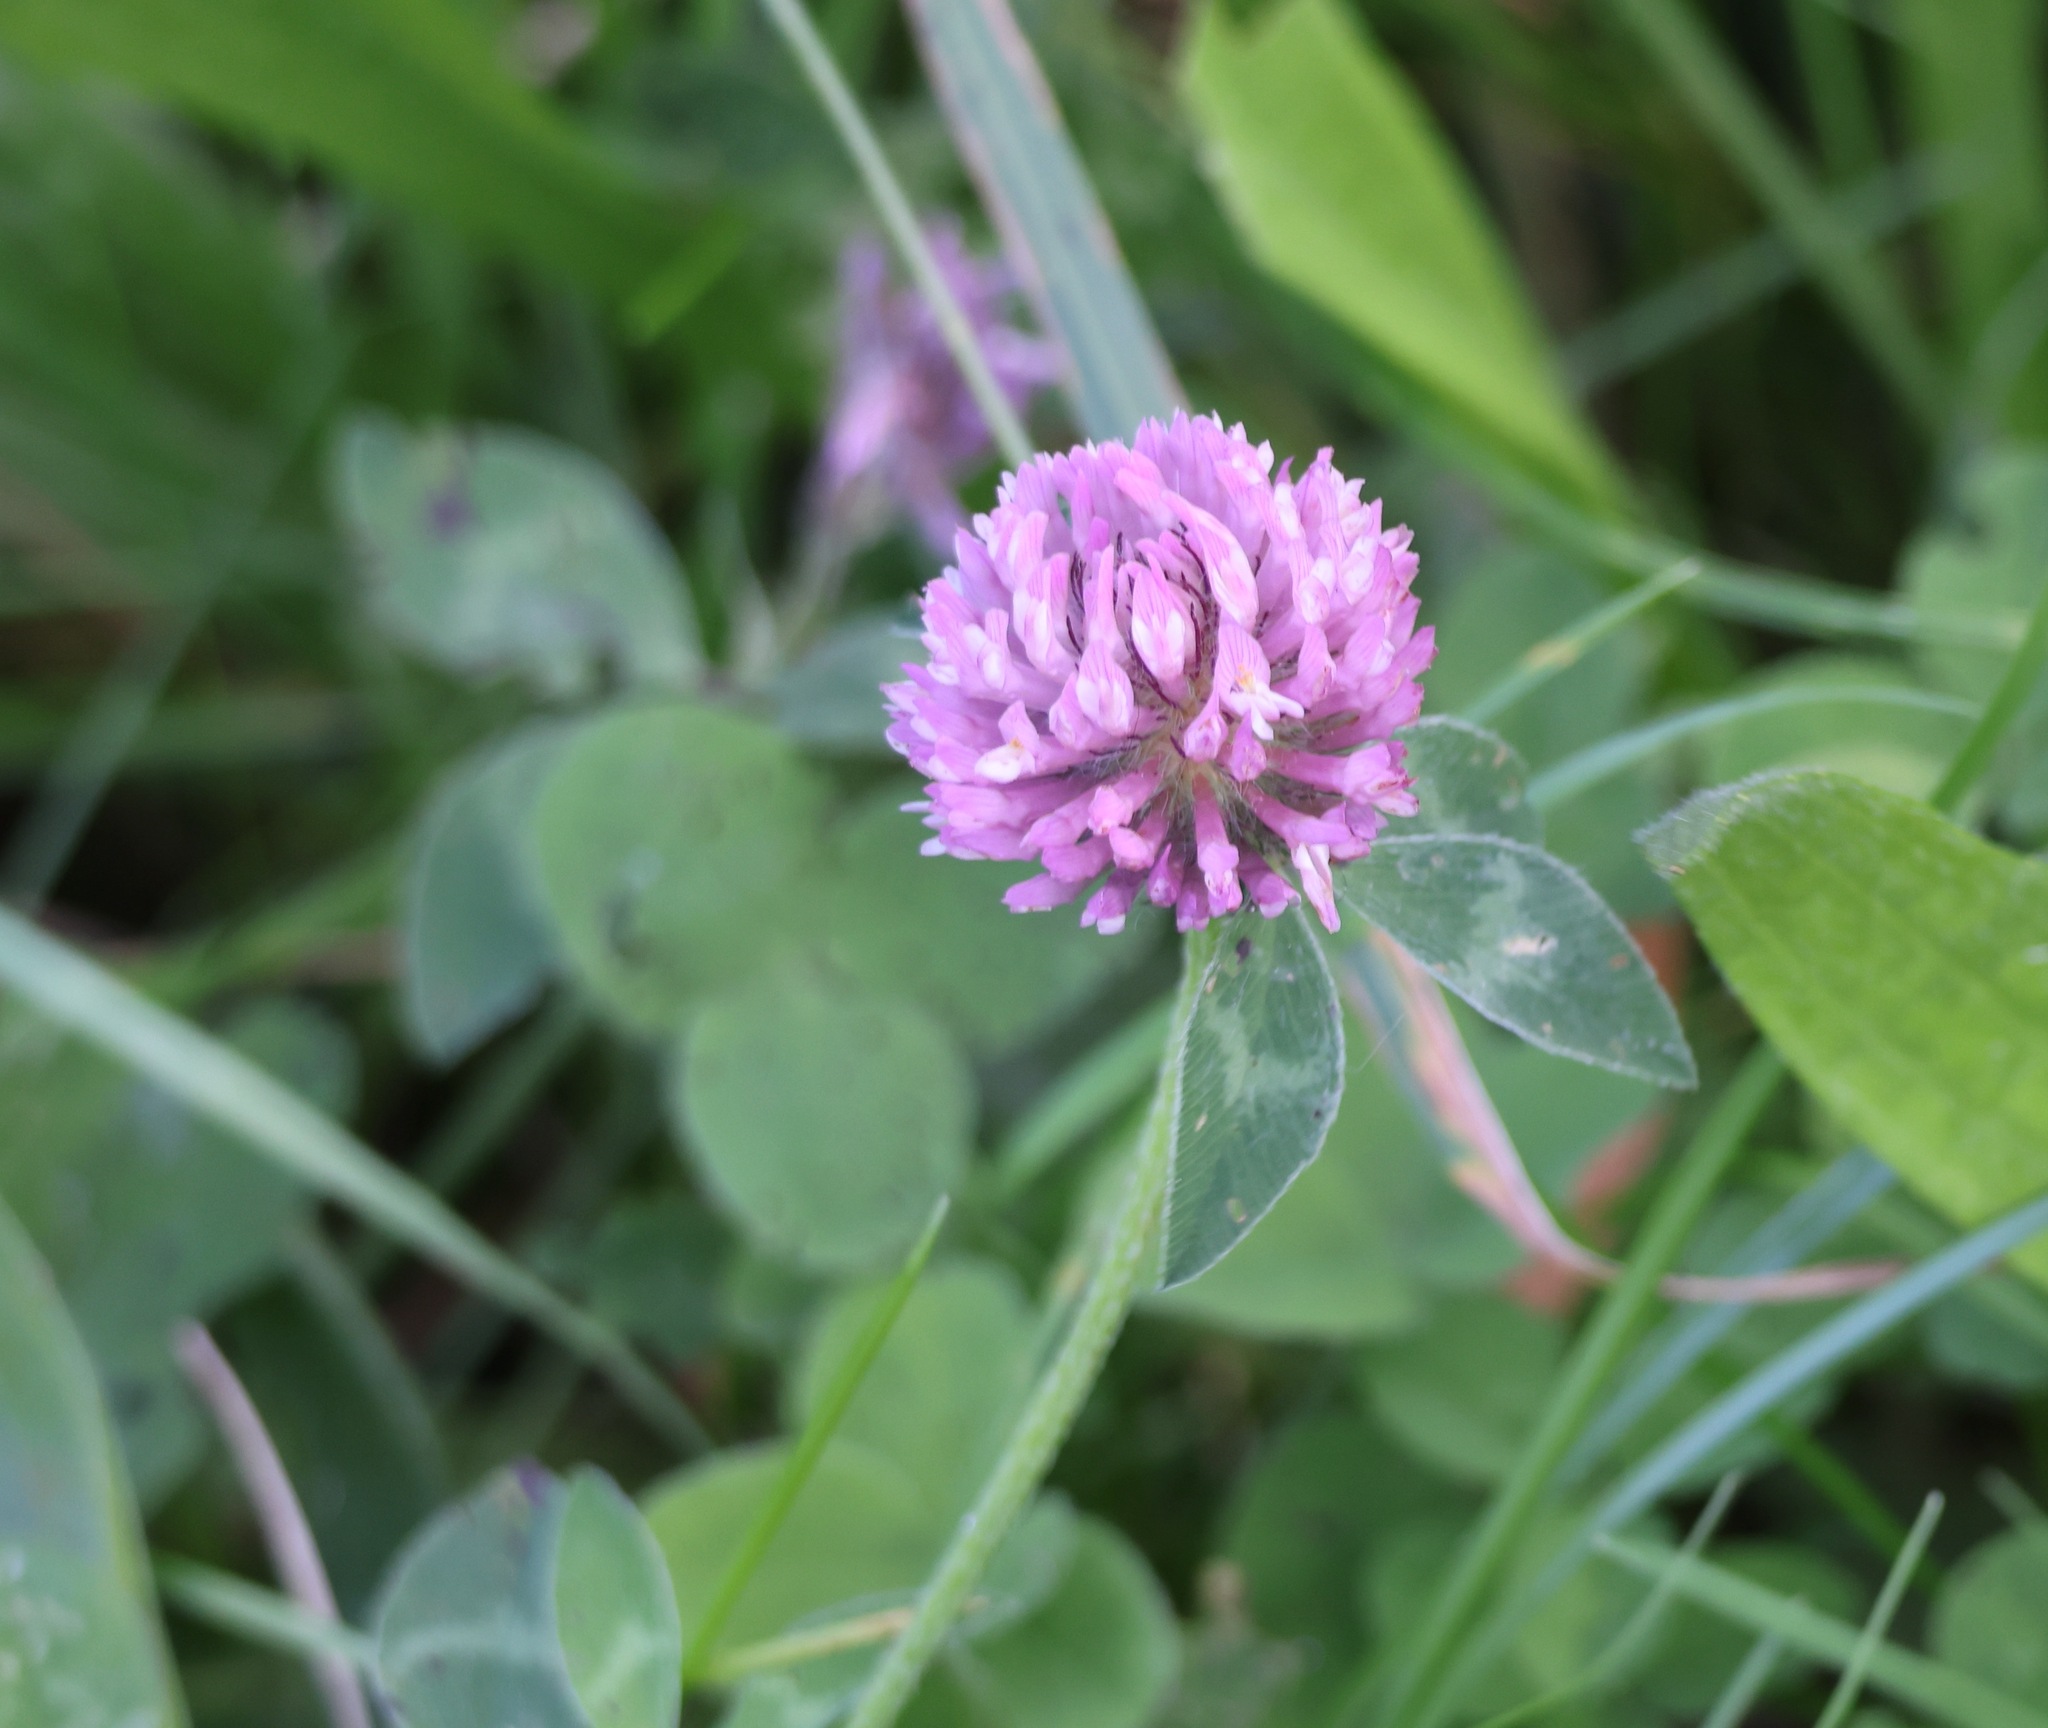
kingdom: Plantae
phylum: Tracheophyta
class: Magnoliopsida
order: Fabales
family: Fabaceae
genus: Trifolium
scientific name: Trifolium pratense
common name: Red clover
